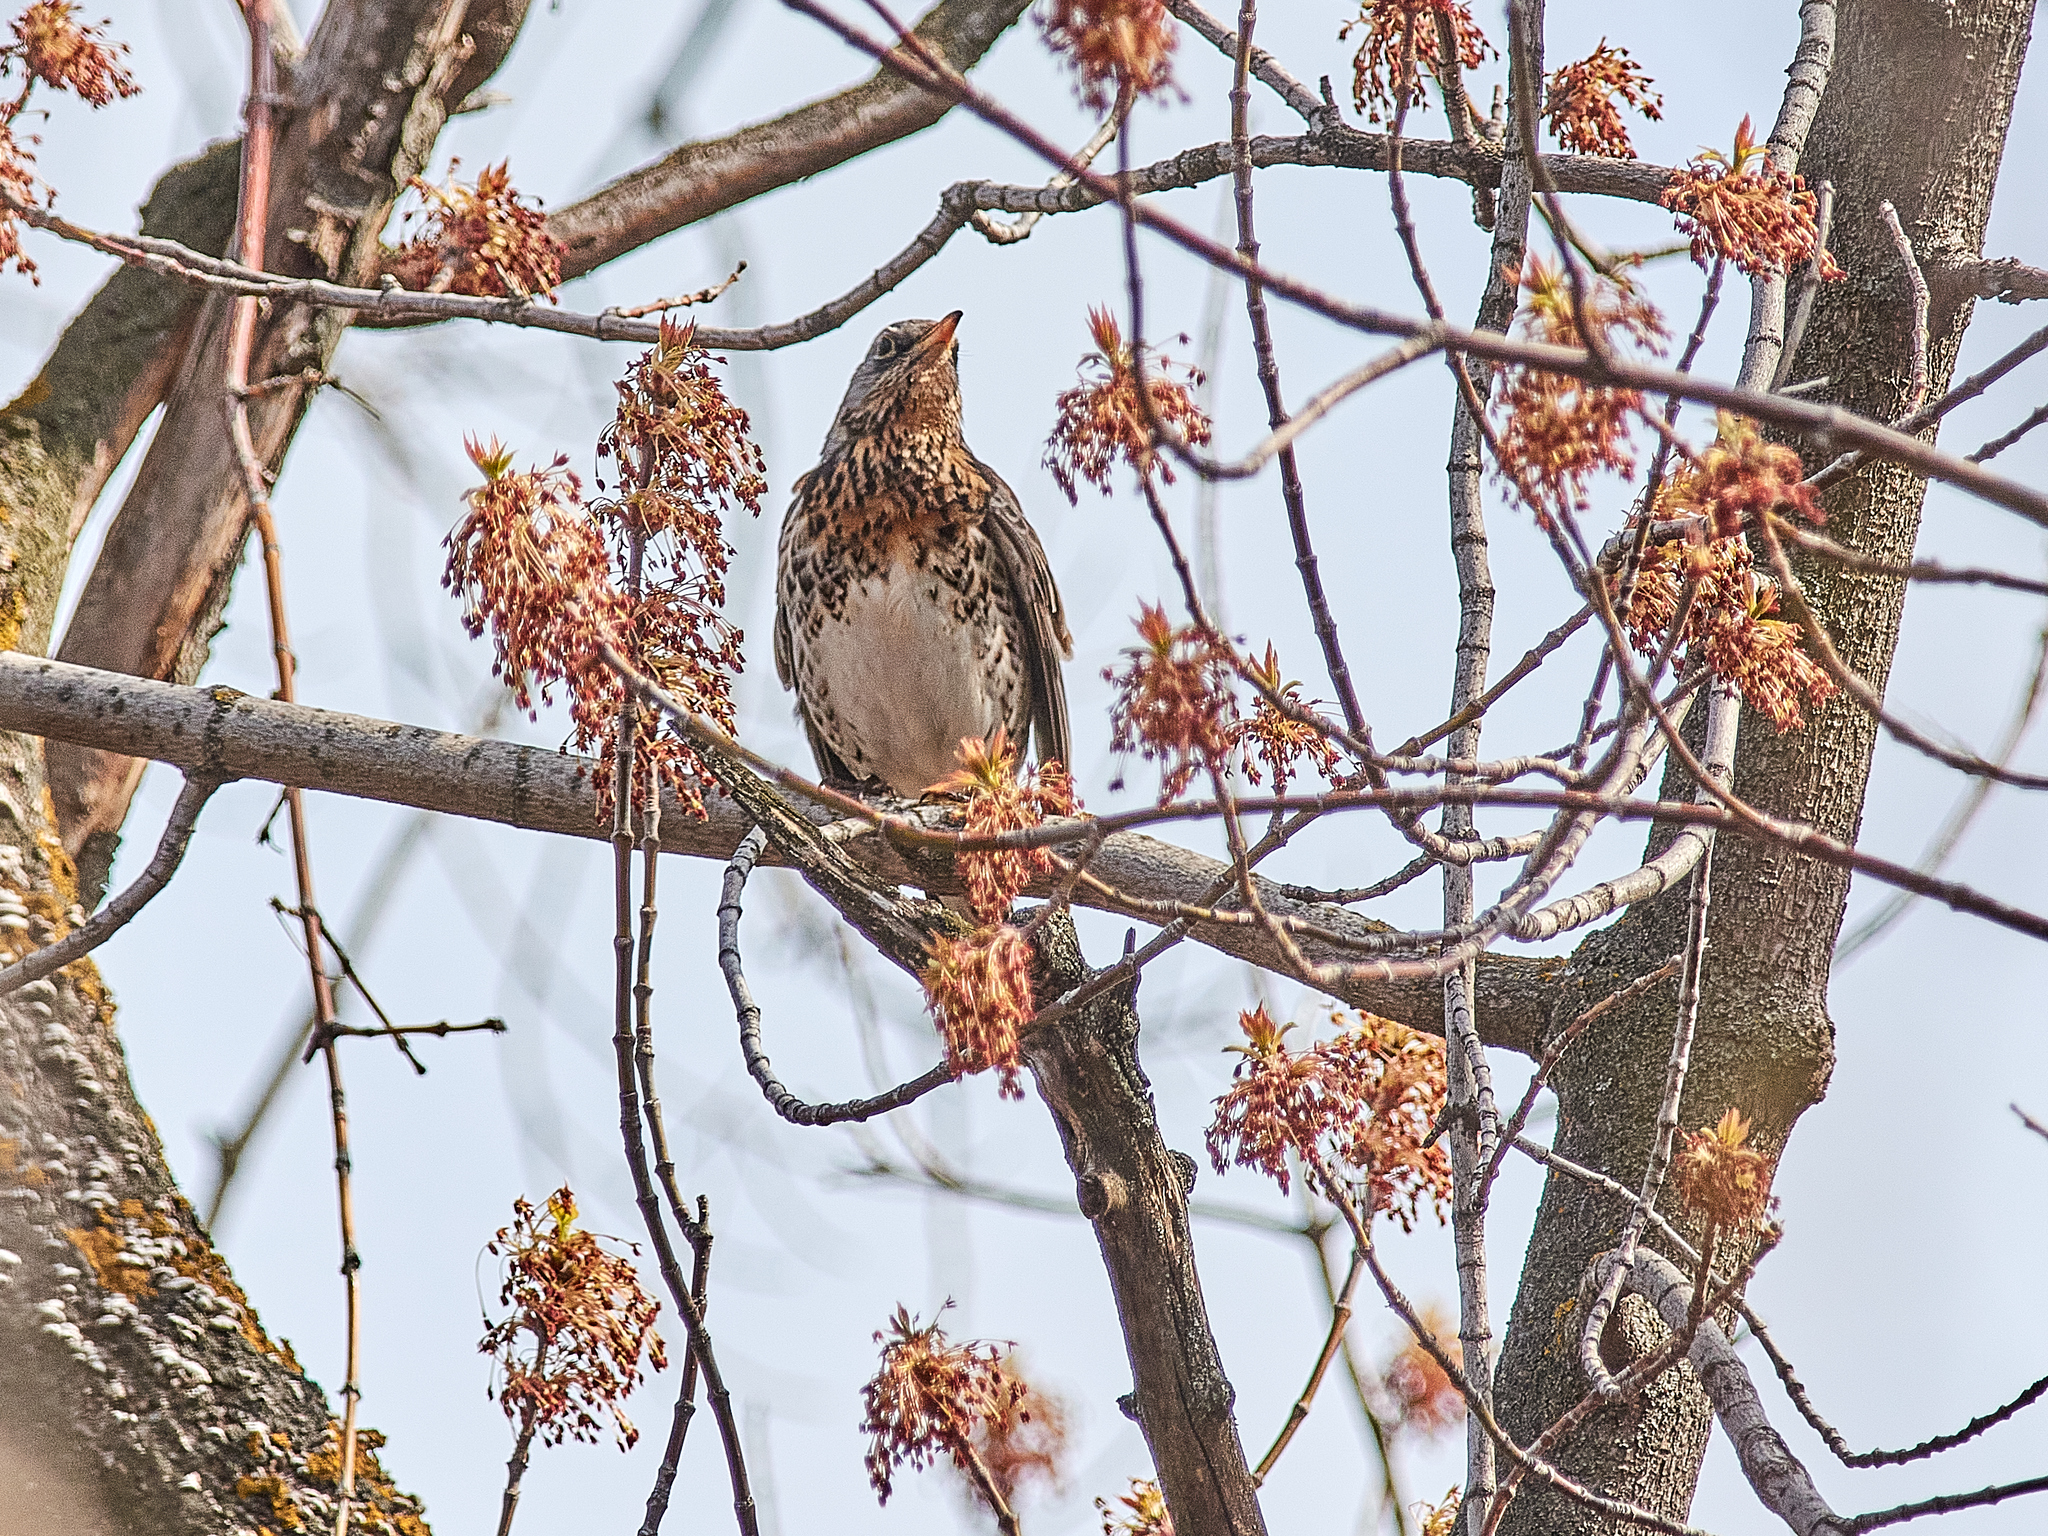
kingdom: Animalia
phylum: Chordata
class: Aves
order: Passeriformes
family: Turdidae
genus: Turdus
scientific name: Turdus pilaris
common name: Fieldfare
